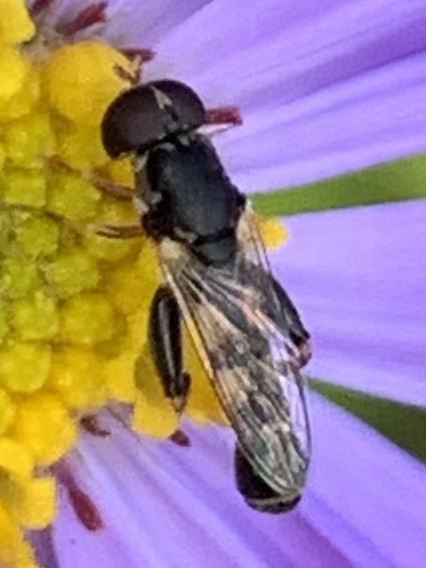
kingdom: Animalia
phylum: Arthropoda
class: Insecta
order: Diptera
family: Syrphidae
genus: Syritta
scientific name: Syritta pipiens
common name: Hover fly
